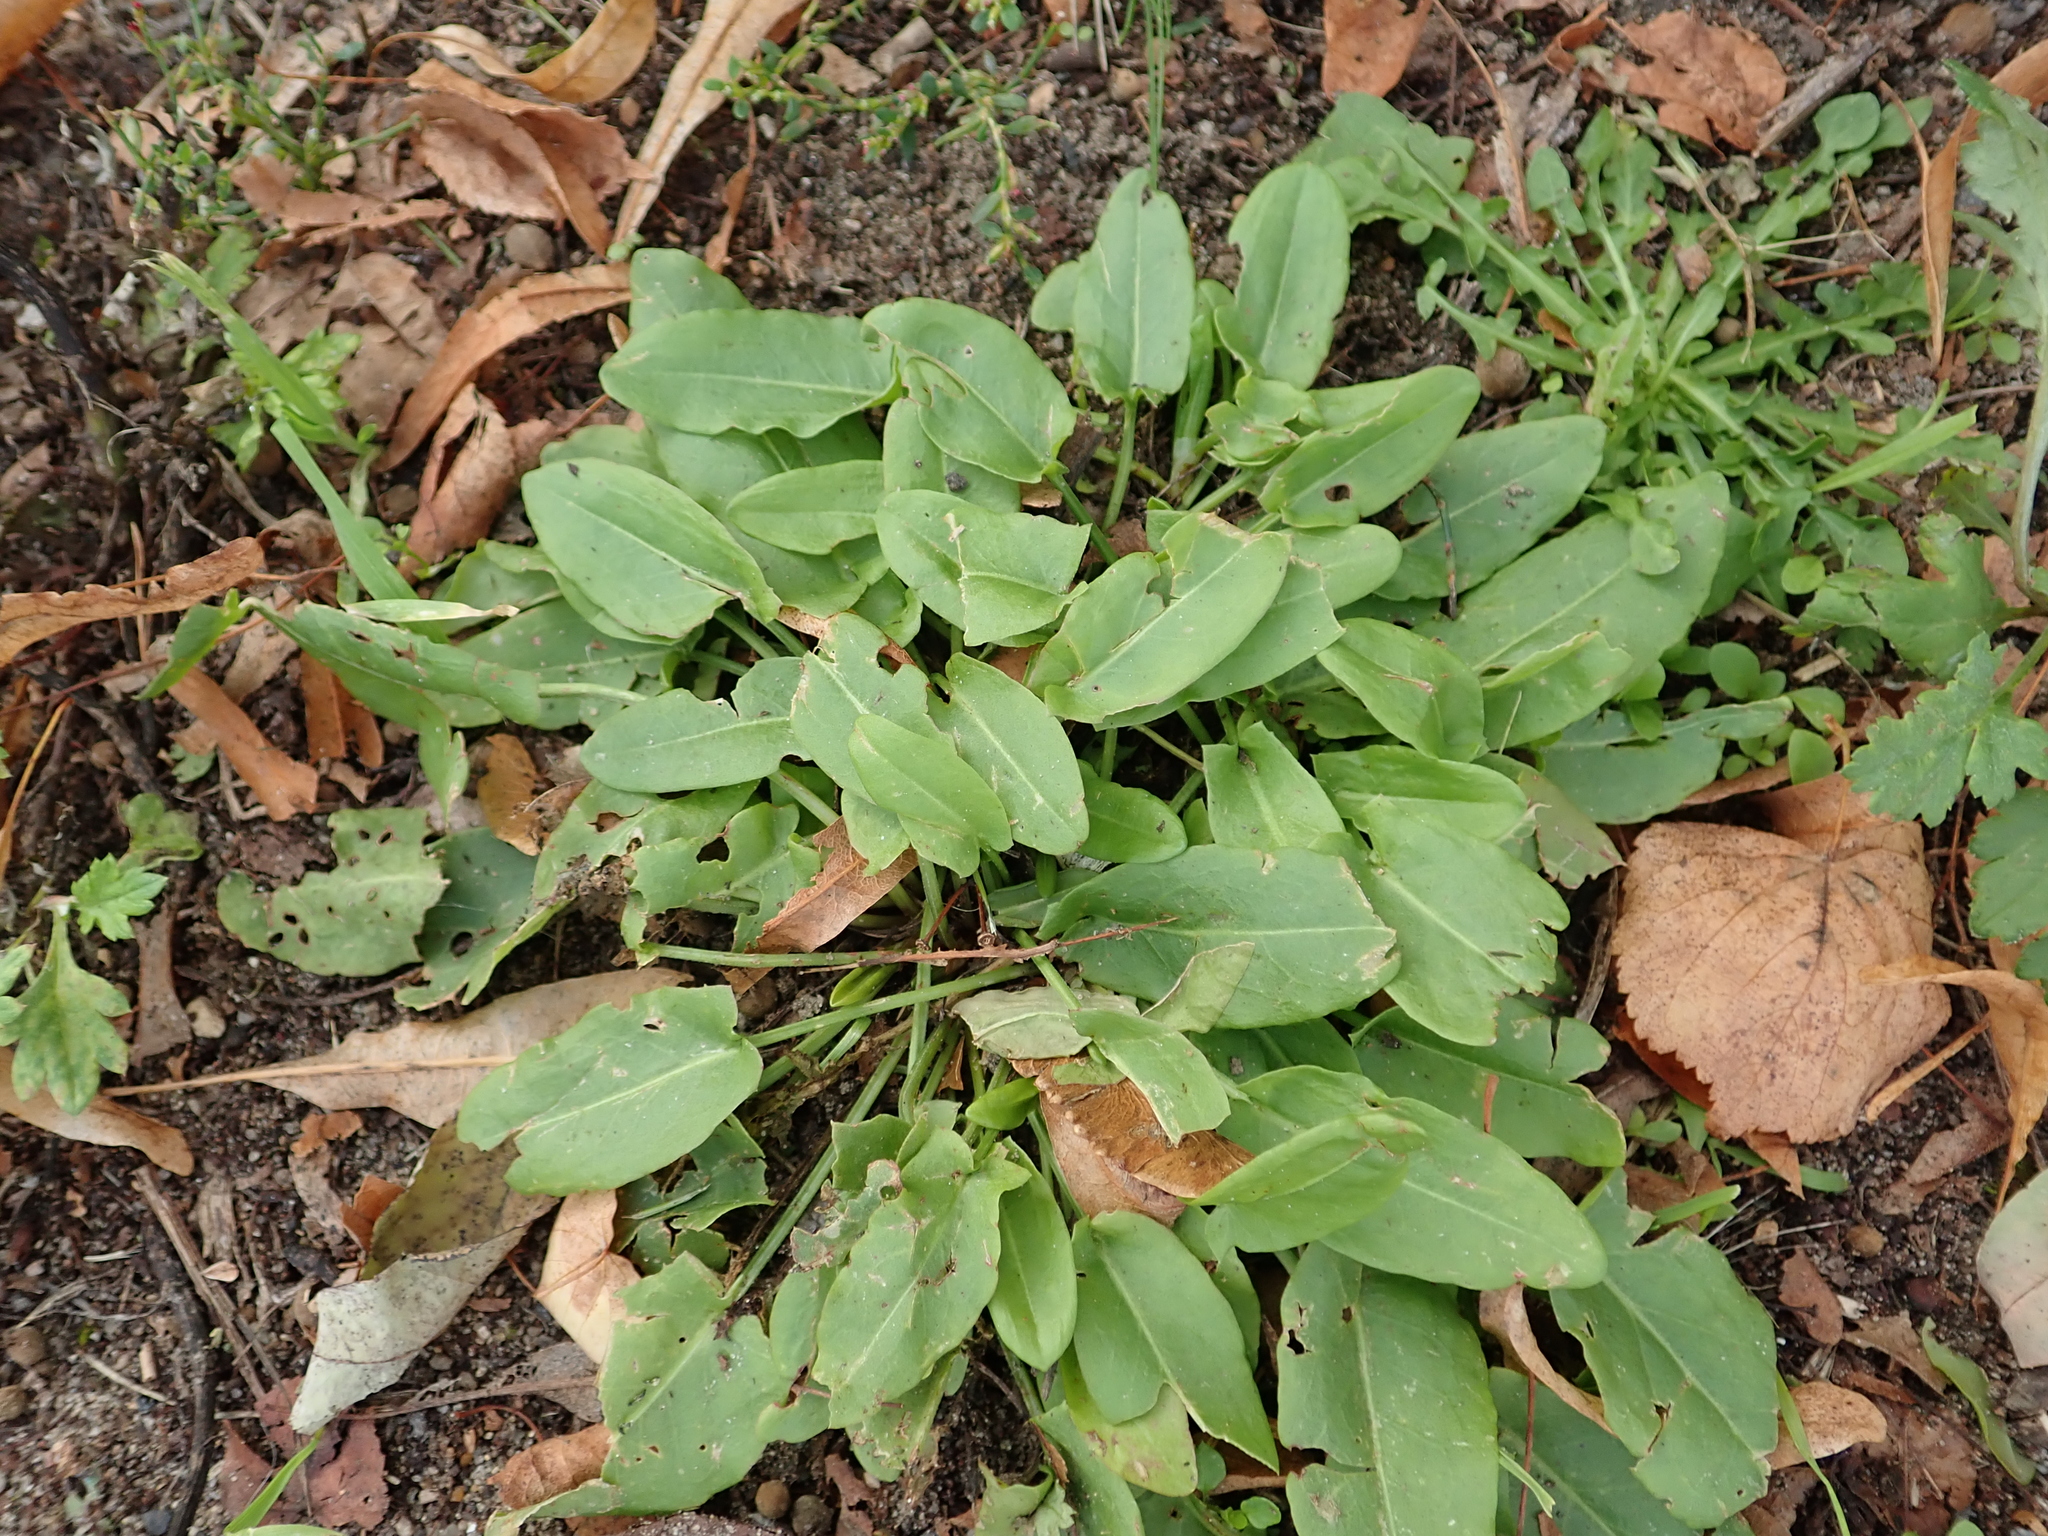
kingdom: Plantae
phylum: Tracheophyta
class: Magnoliopsida
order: Caryophyllales
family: Polygonaceae
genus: Rumex
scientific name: Rumex acetosa
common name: Garden sorrel
